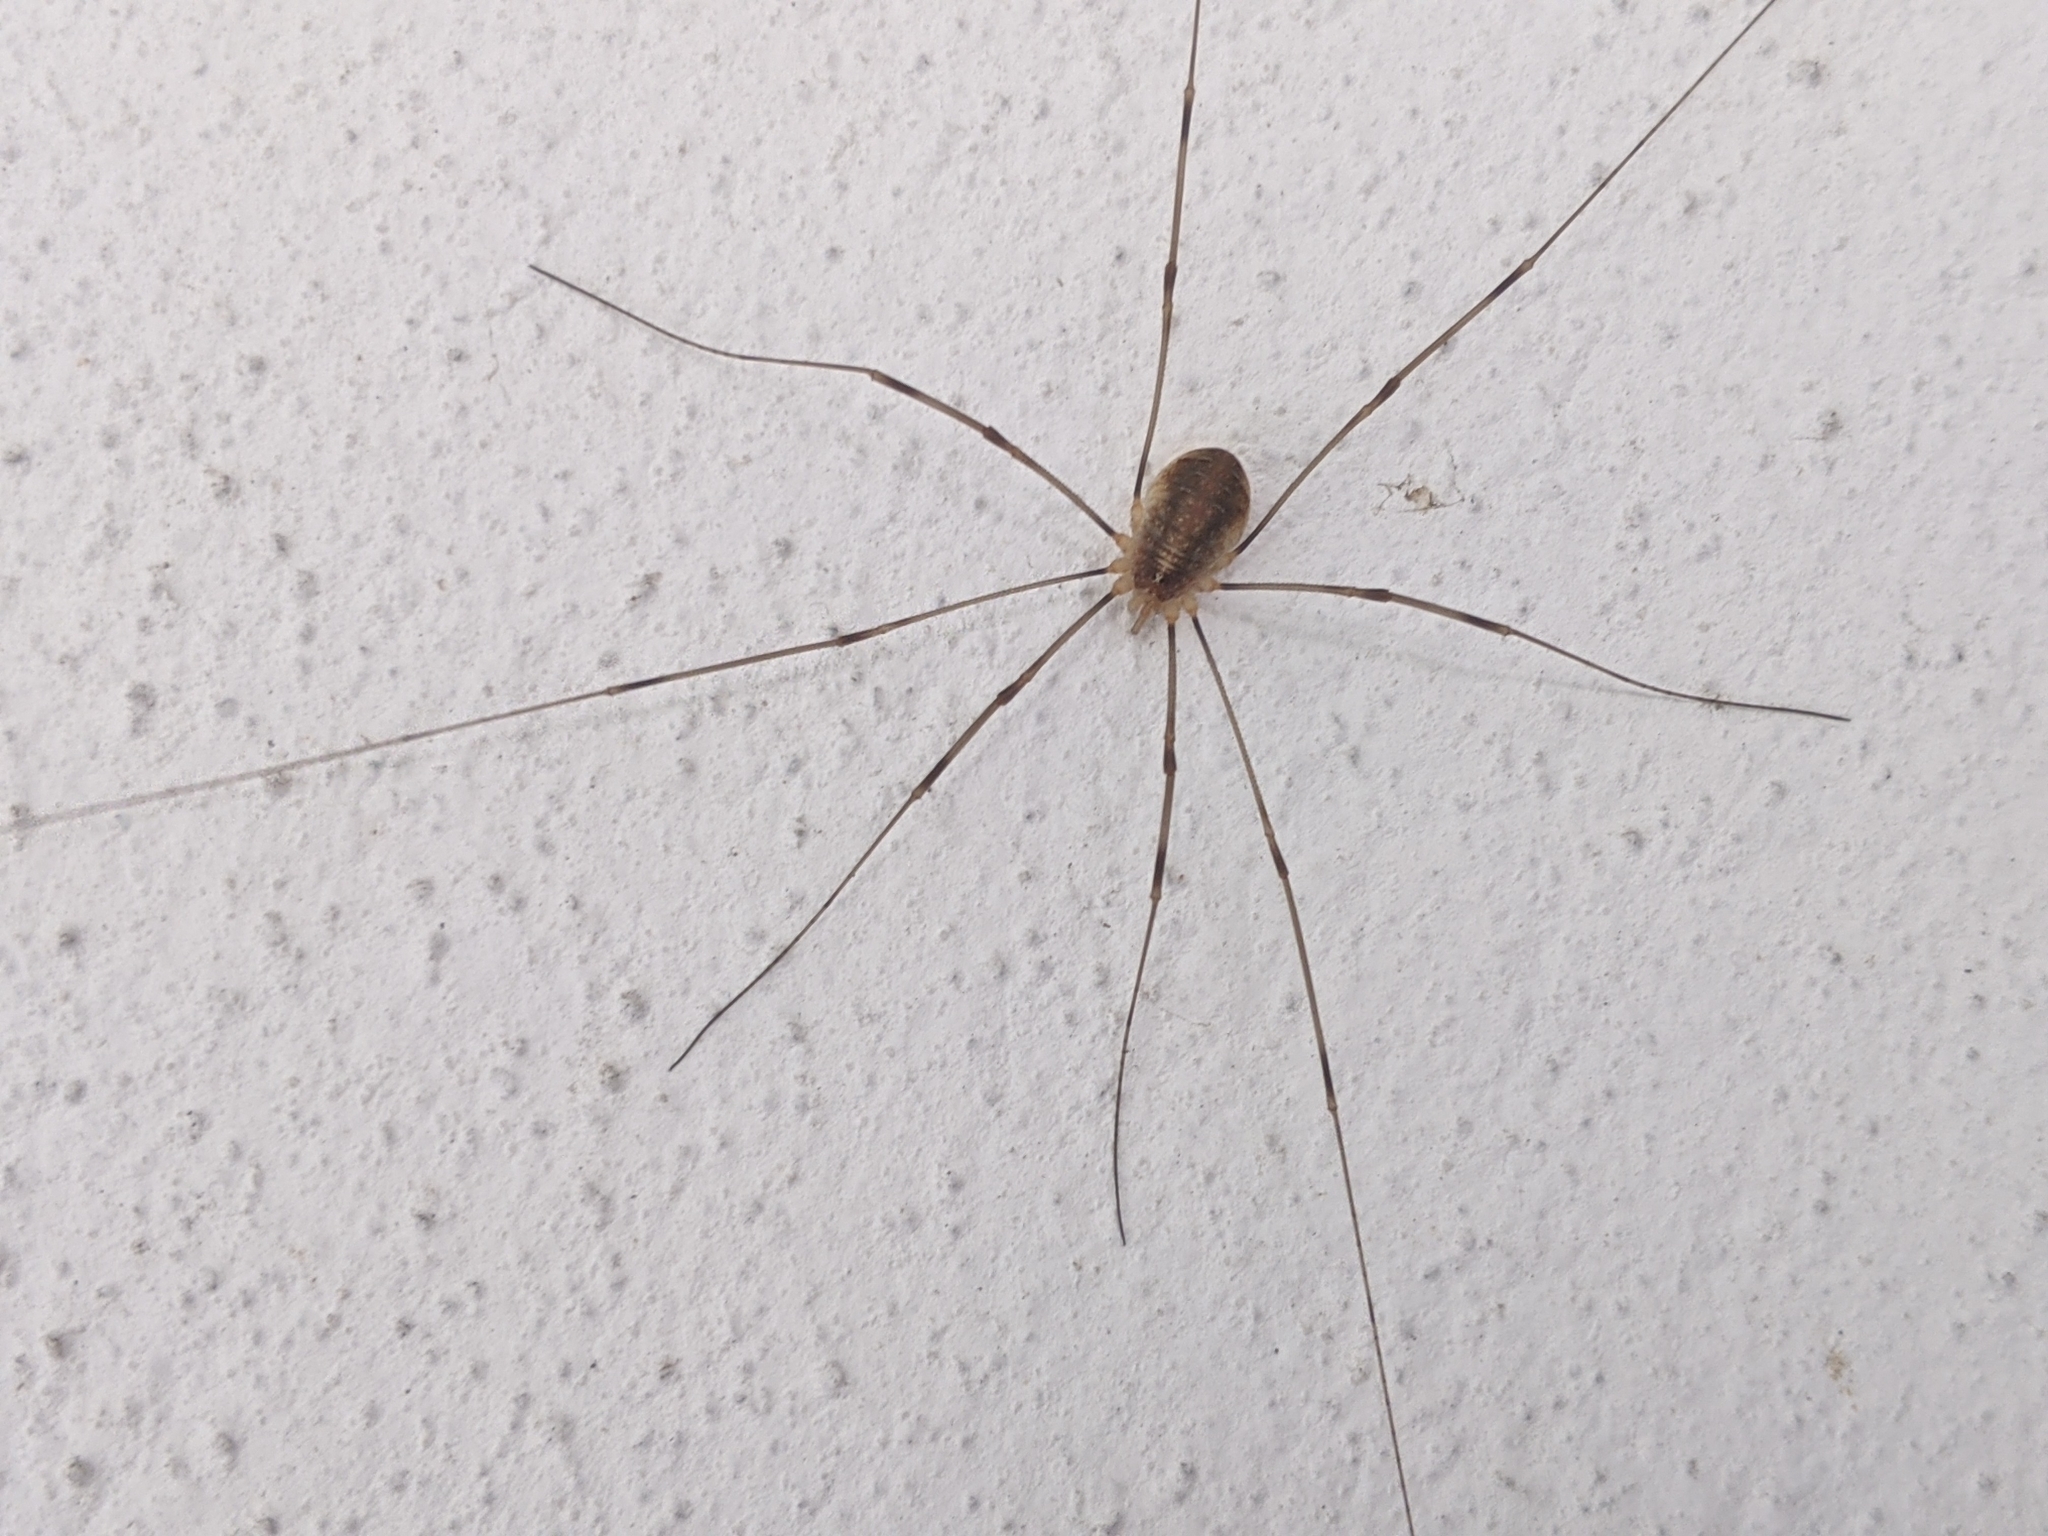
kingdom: Animalia
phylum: Arthropoda
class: Arachnida
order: Opiliones
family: Phalangiidae
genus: Opilio
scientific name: Opilio canestrinii
